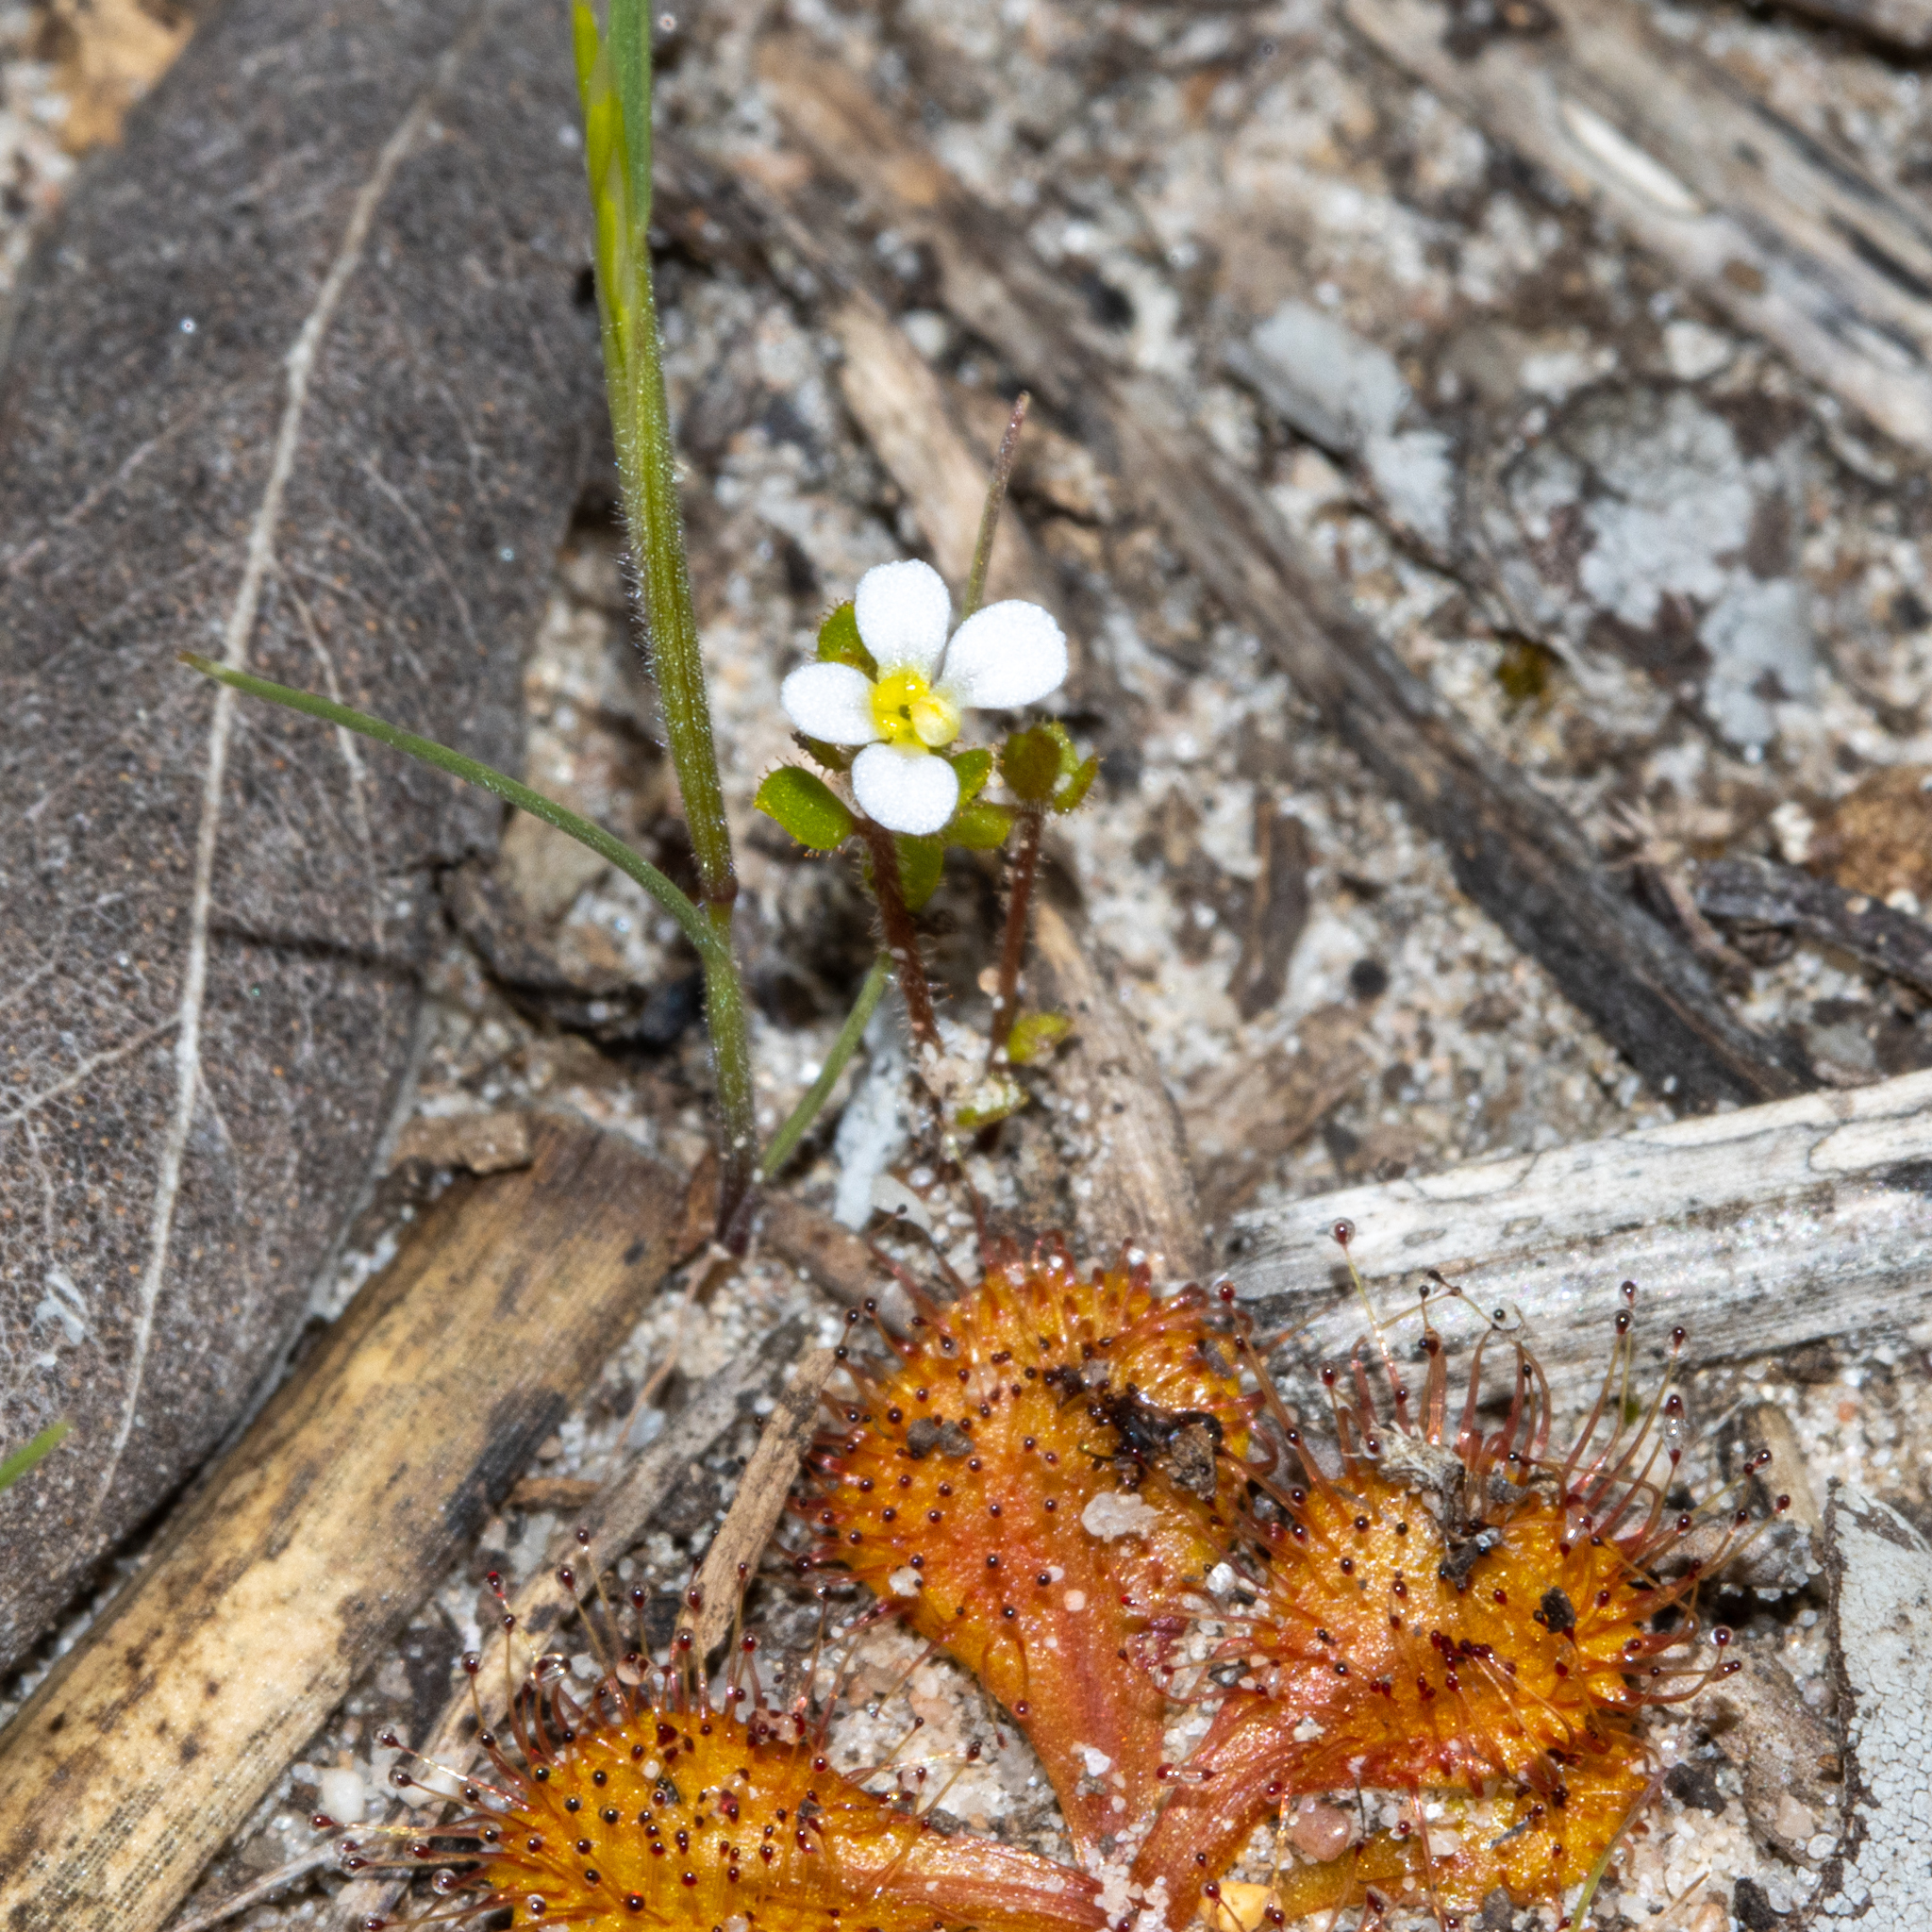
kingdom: Plantae
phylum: Tracheophyta
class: Magnoliopsida
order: Asterales
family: Stylidiaceae
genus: Levenhookia
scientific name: Levenhookia dubia
